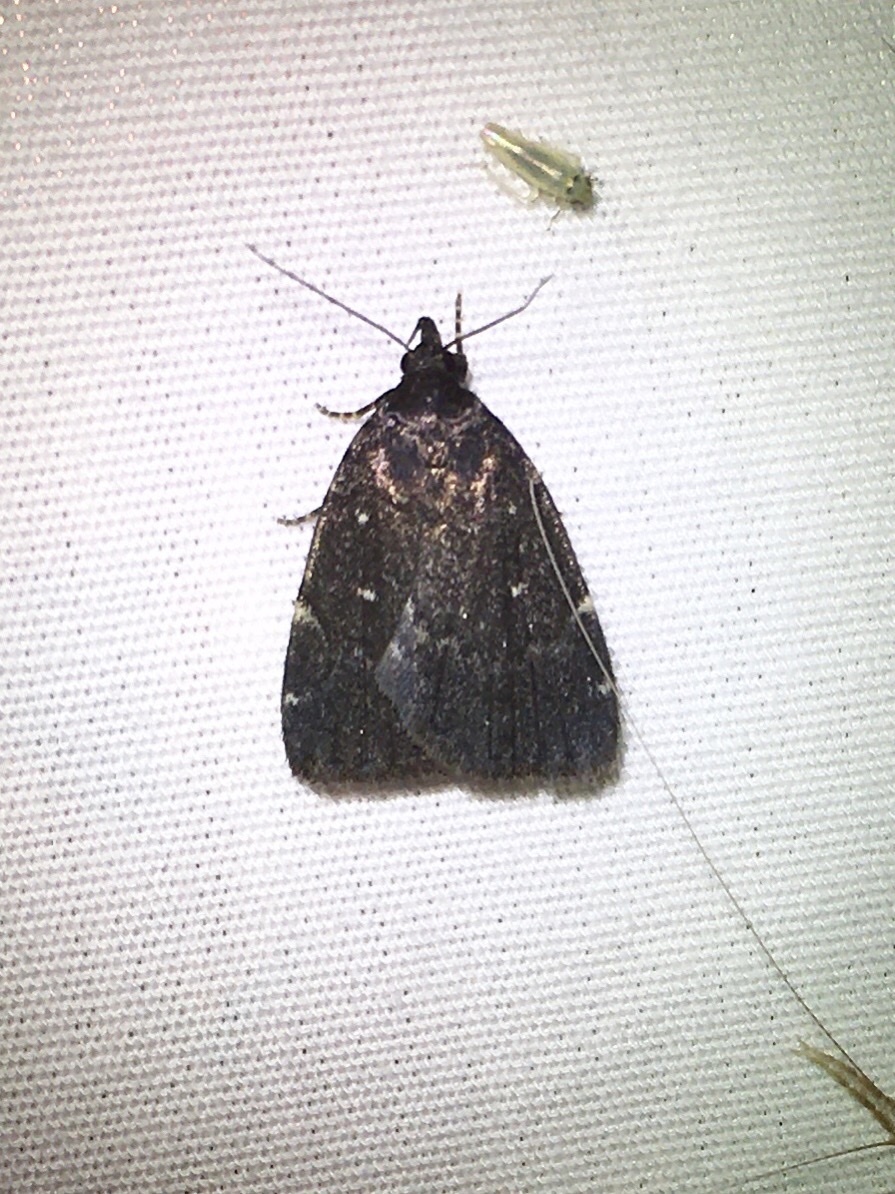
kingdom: Animalia
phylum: Arthropoda
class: Insecta
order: Lepidoptera
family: Erebidae
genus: Idia
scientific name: Idia julia
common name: Julia's idia moth
